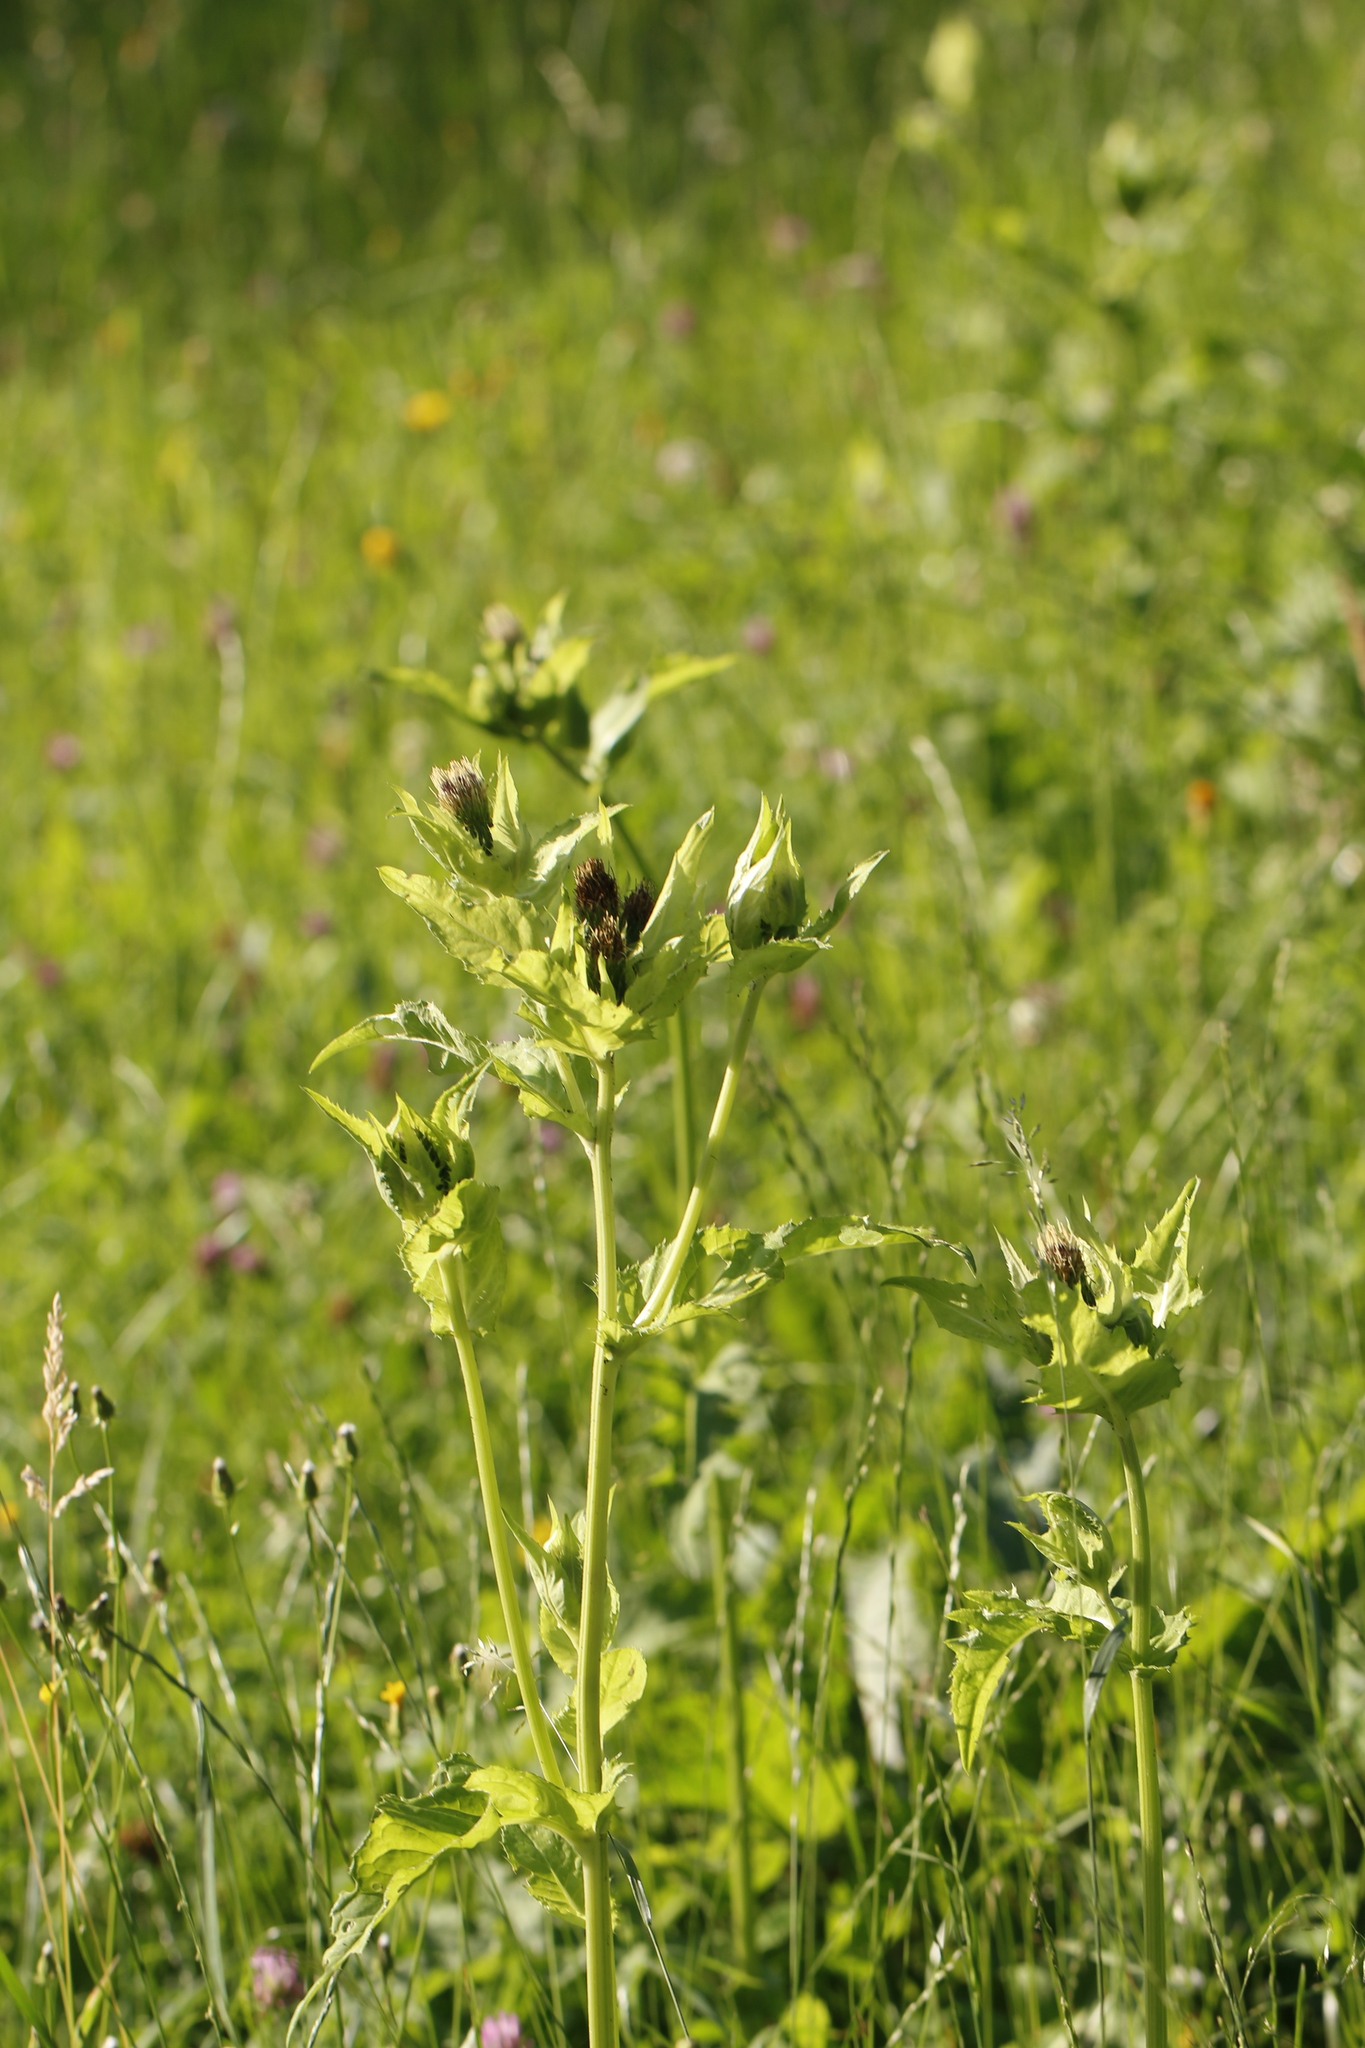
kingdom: Plantae
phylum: Tracheophyta
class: Magnoliopsida
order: Asterales
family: Asteraceae
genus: Cirsium
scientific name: Cirsium oleraceum
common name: Cabbage thistle
